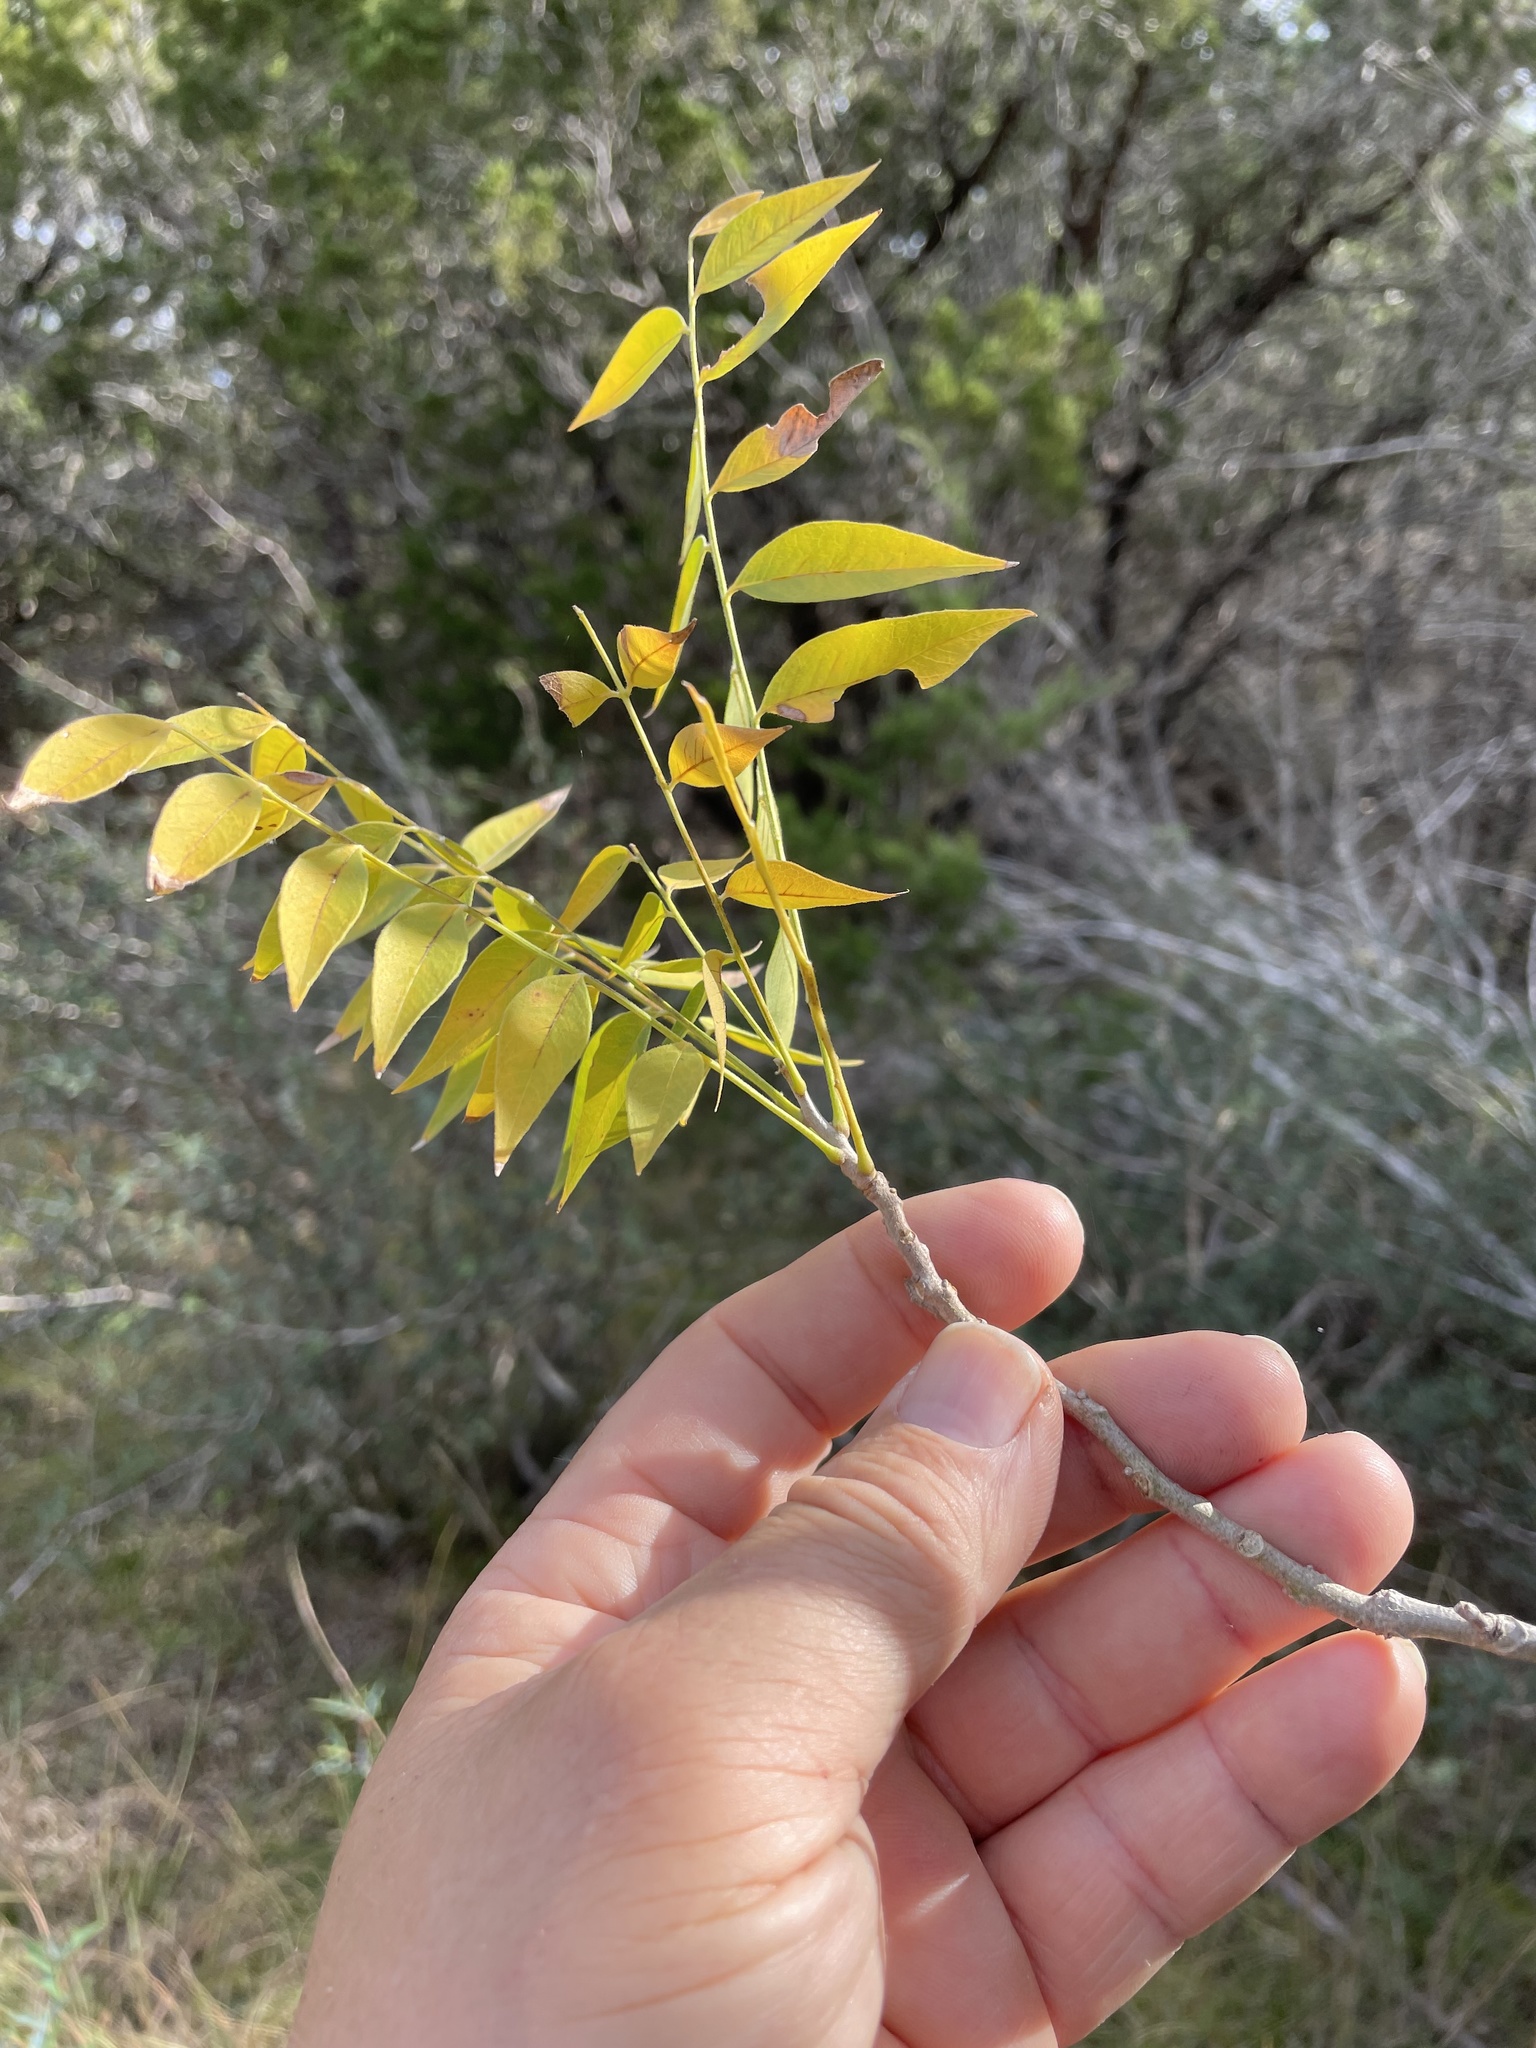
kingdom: Plantae
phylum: Tracheophyta
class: Magnoliopsida
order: Sapindales
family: Sapindaceae
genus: Sapindus
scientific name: Sapindus drummondii
